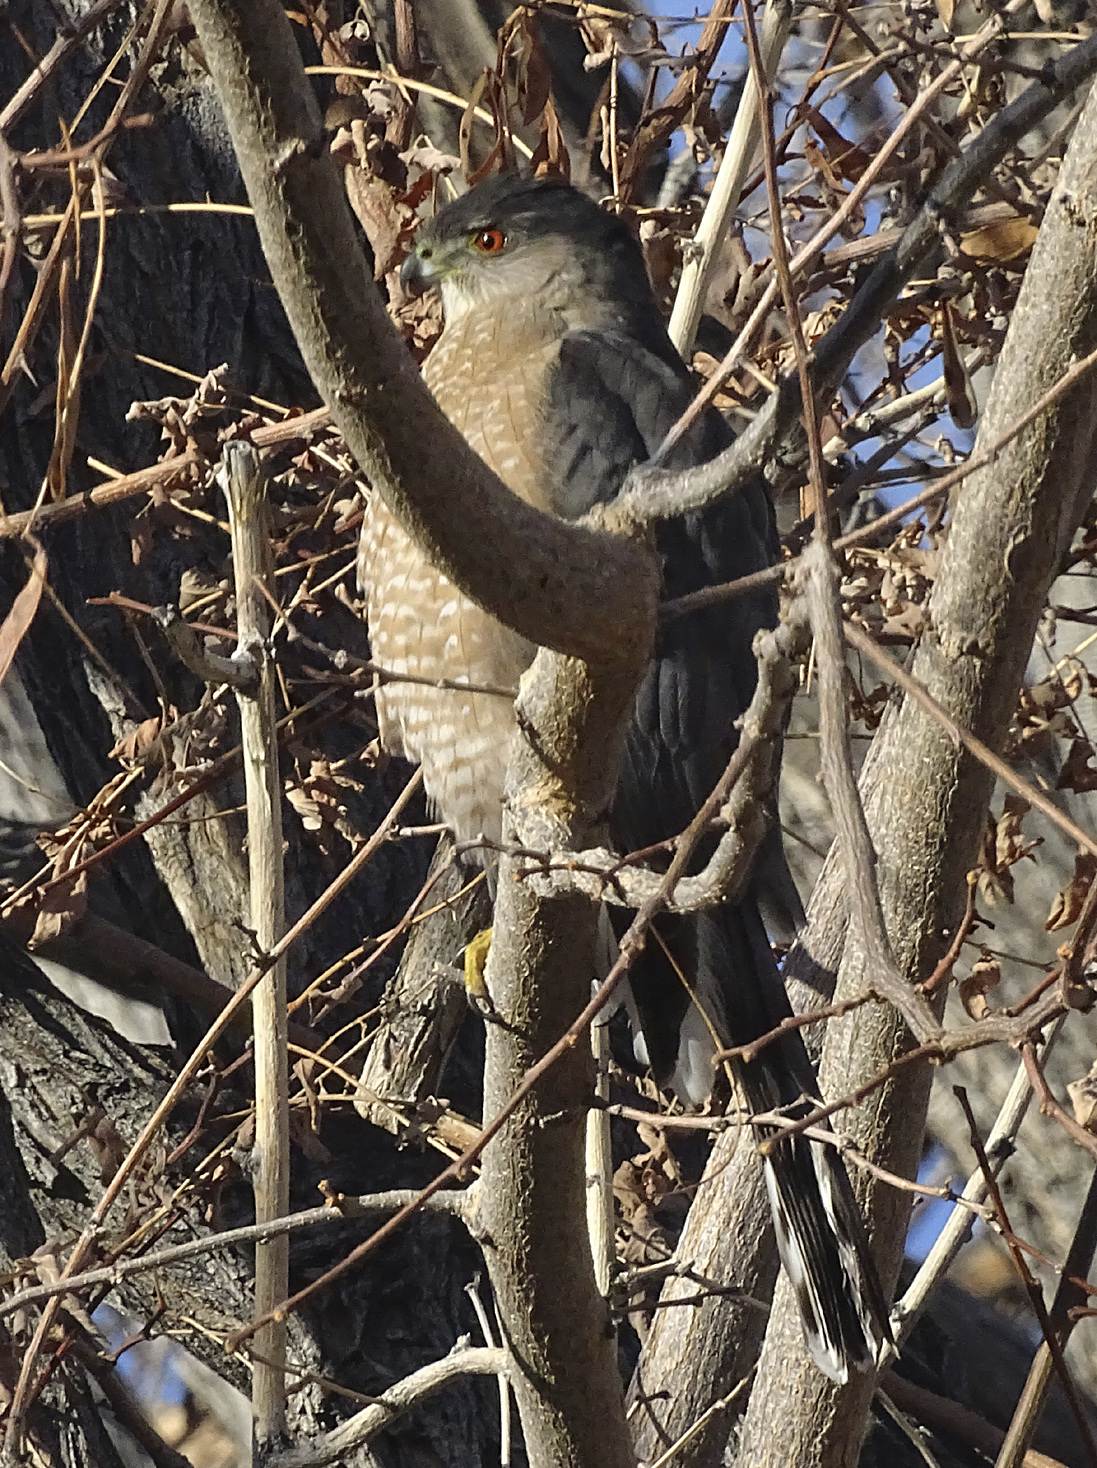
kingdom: Animalia
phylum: Chordata
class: Aves
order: Accipitriformes
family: Accipitridae
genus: Accipiter
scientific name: Accipiter cooperii
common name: Cooper's hawk
